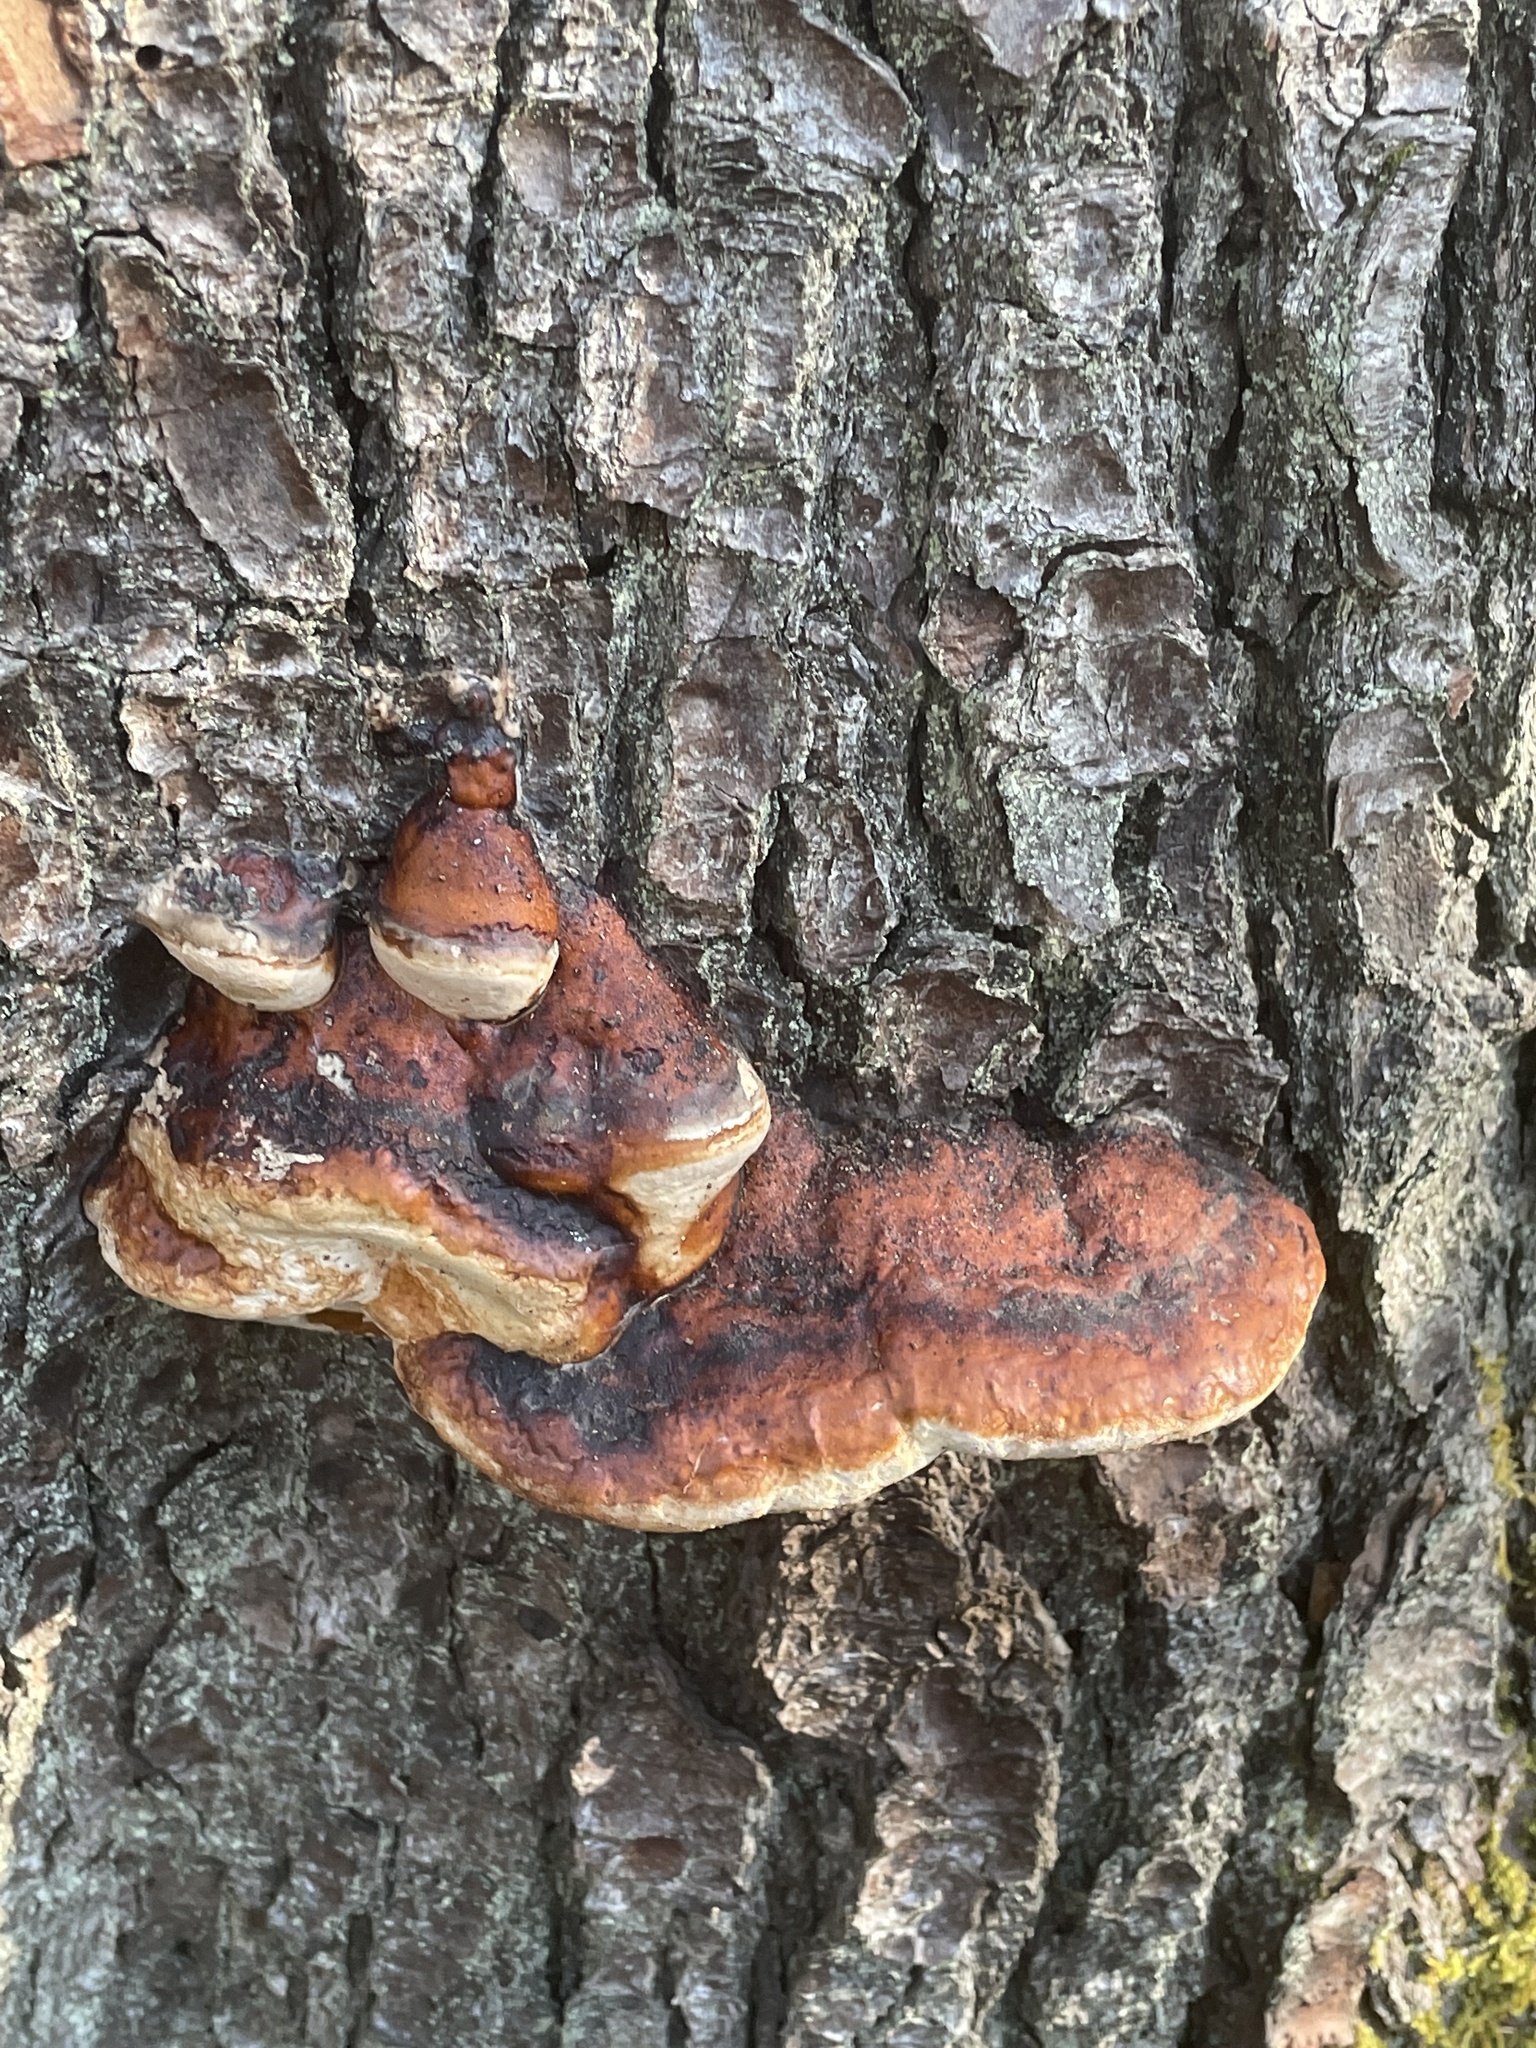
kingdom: Fungi
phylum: Basidiomycota
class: Agaricomycetes
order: Polyporales
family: Fomitopsidaceae
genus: Fomitopsis
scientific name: Fomitopsis mounceae
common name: Northern red belt
